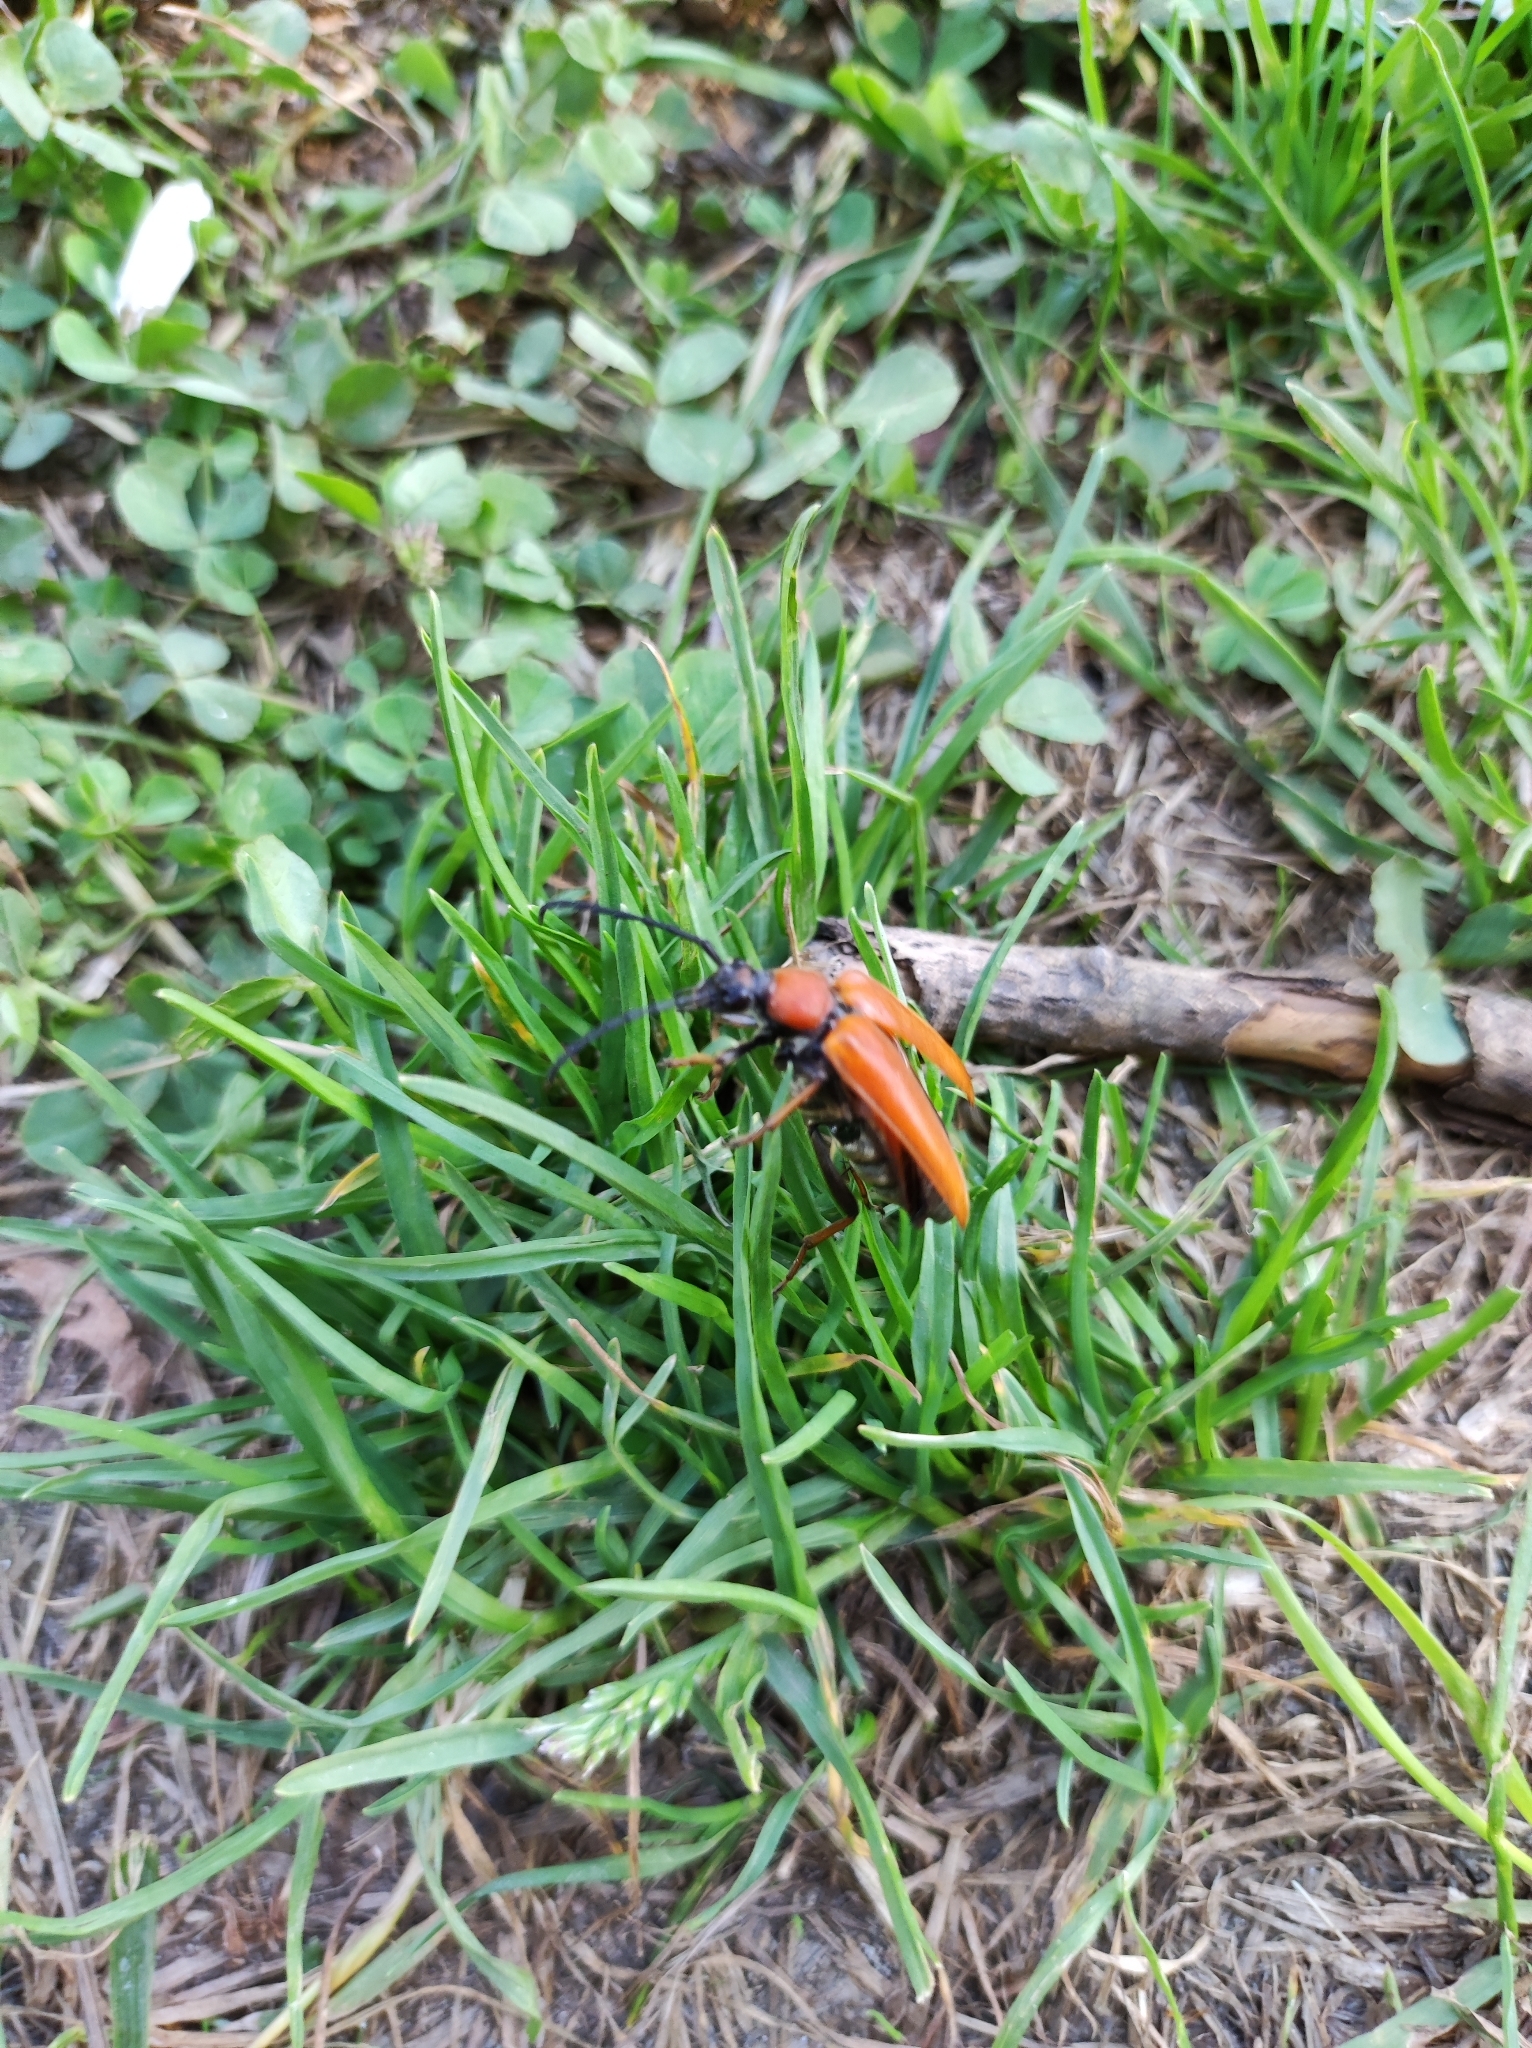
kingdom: Animalia
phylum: Arthropoda
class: Insecta
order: Coleoptera
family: Cerambycidae
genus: Stictoleptura
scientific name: Stictoleptura rubra
